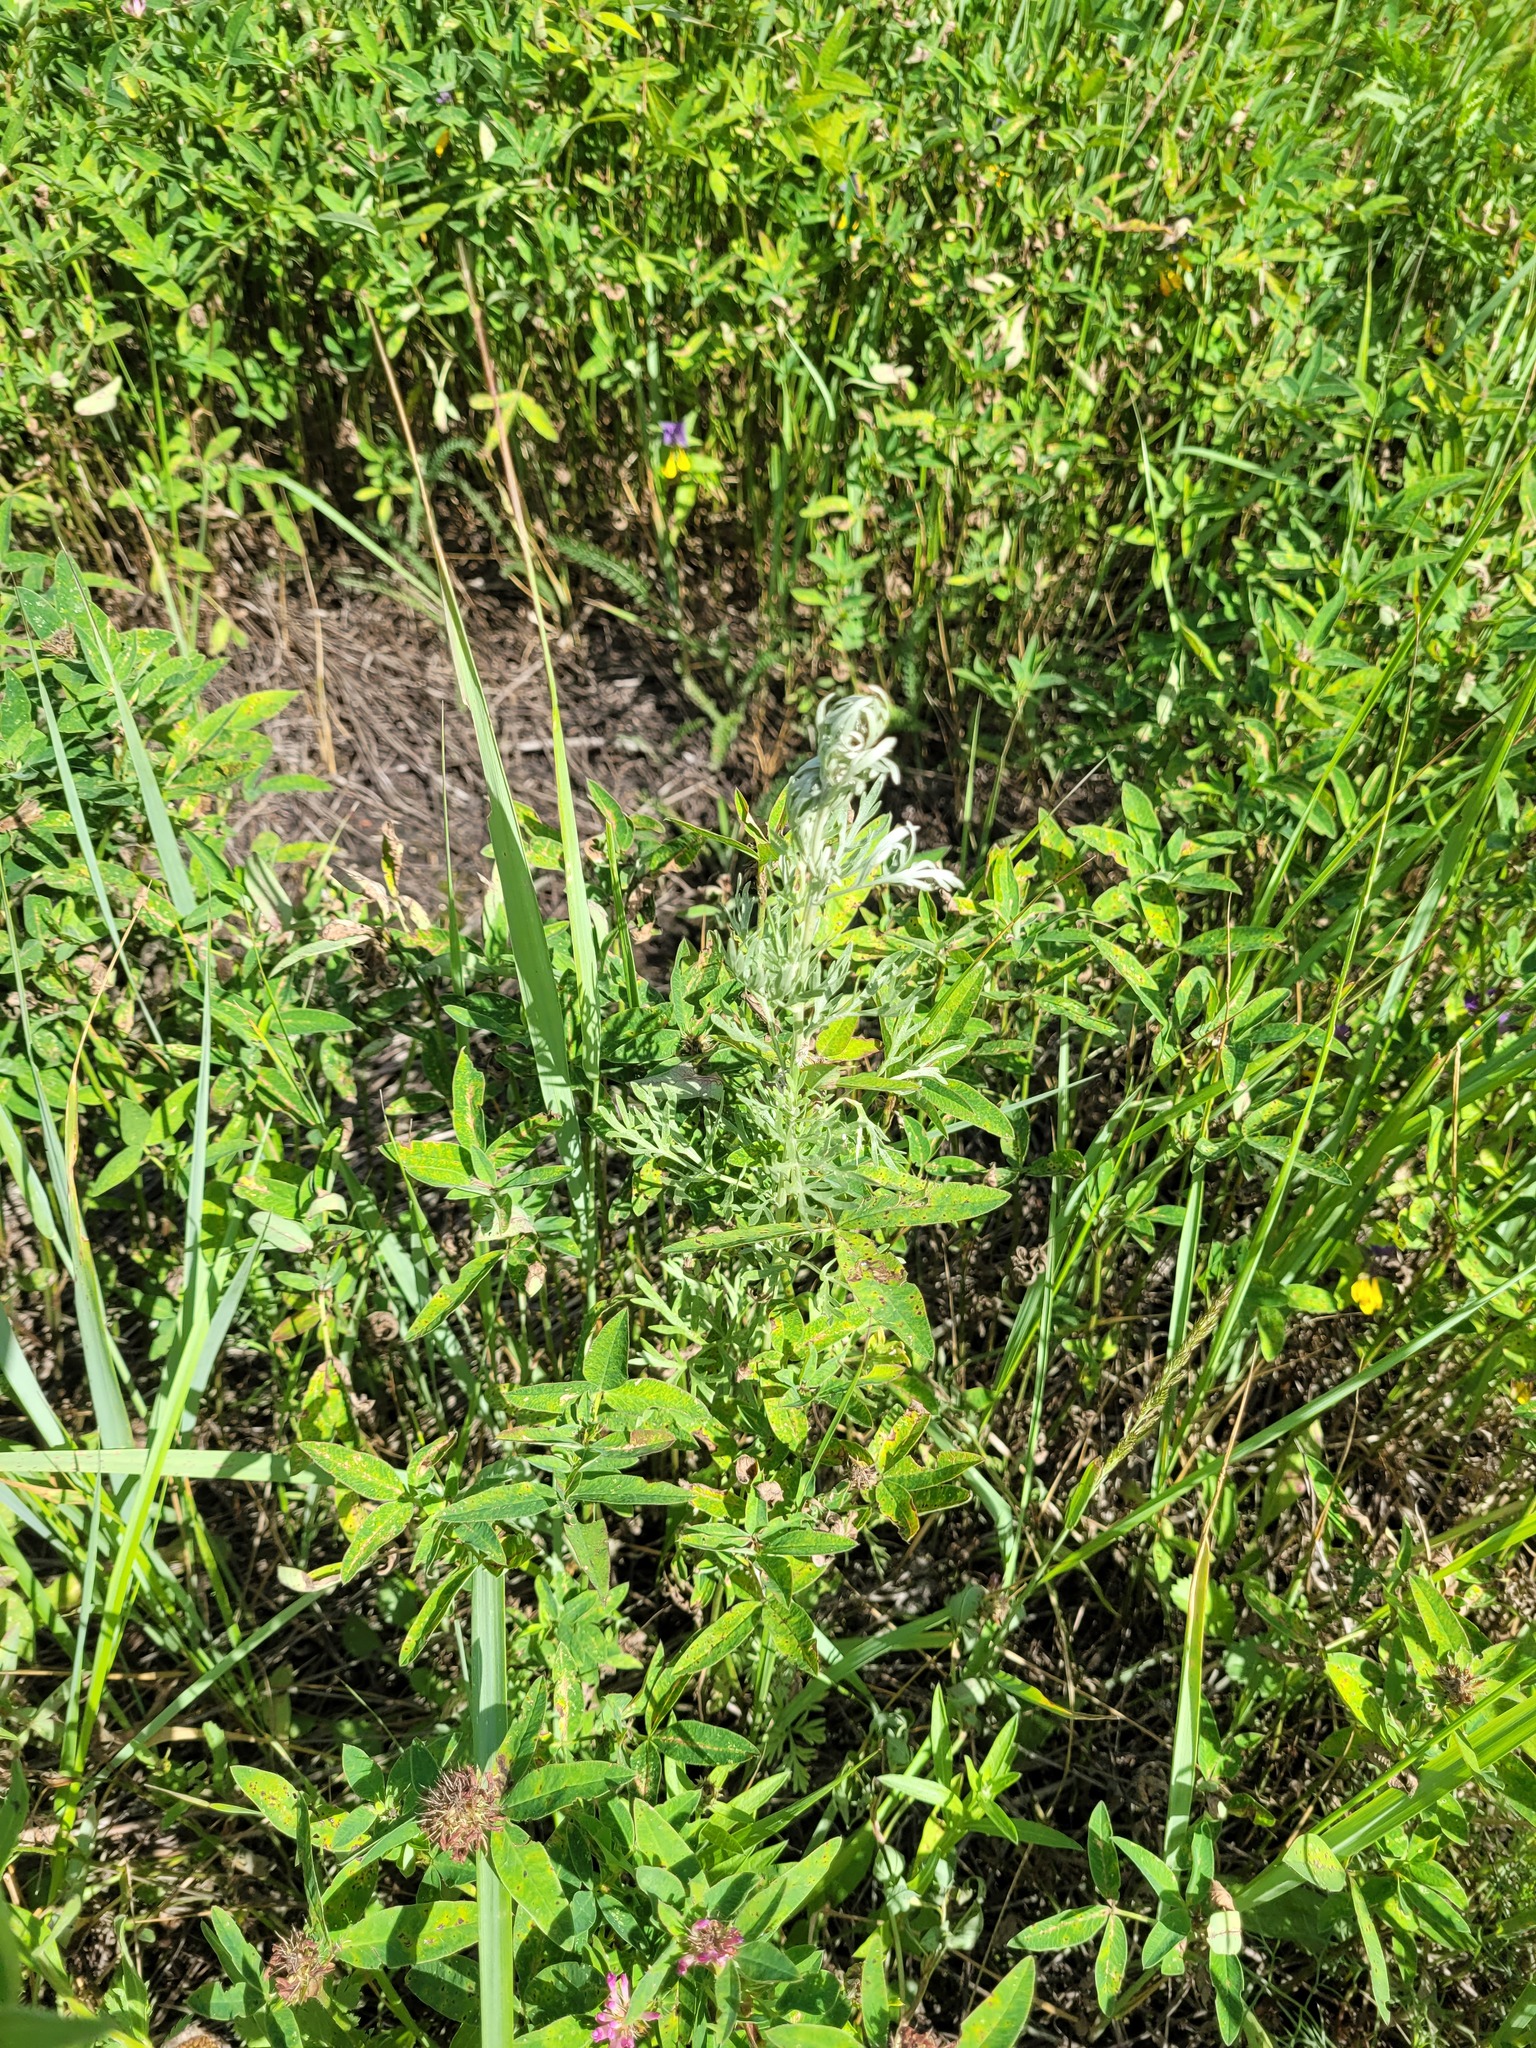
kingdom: Plantae
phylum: Tracheophyta
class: Magnoliopsida
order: Asterales
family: Asteraceae
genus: Artemisia
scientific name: Artemisia absinthium
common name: Wormwood
